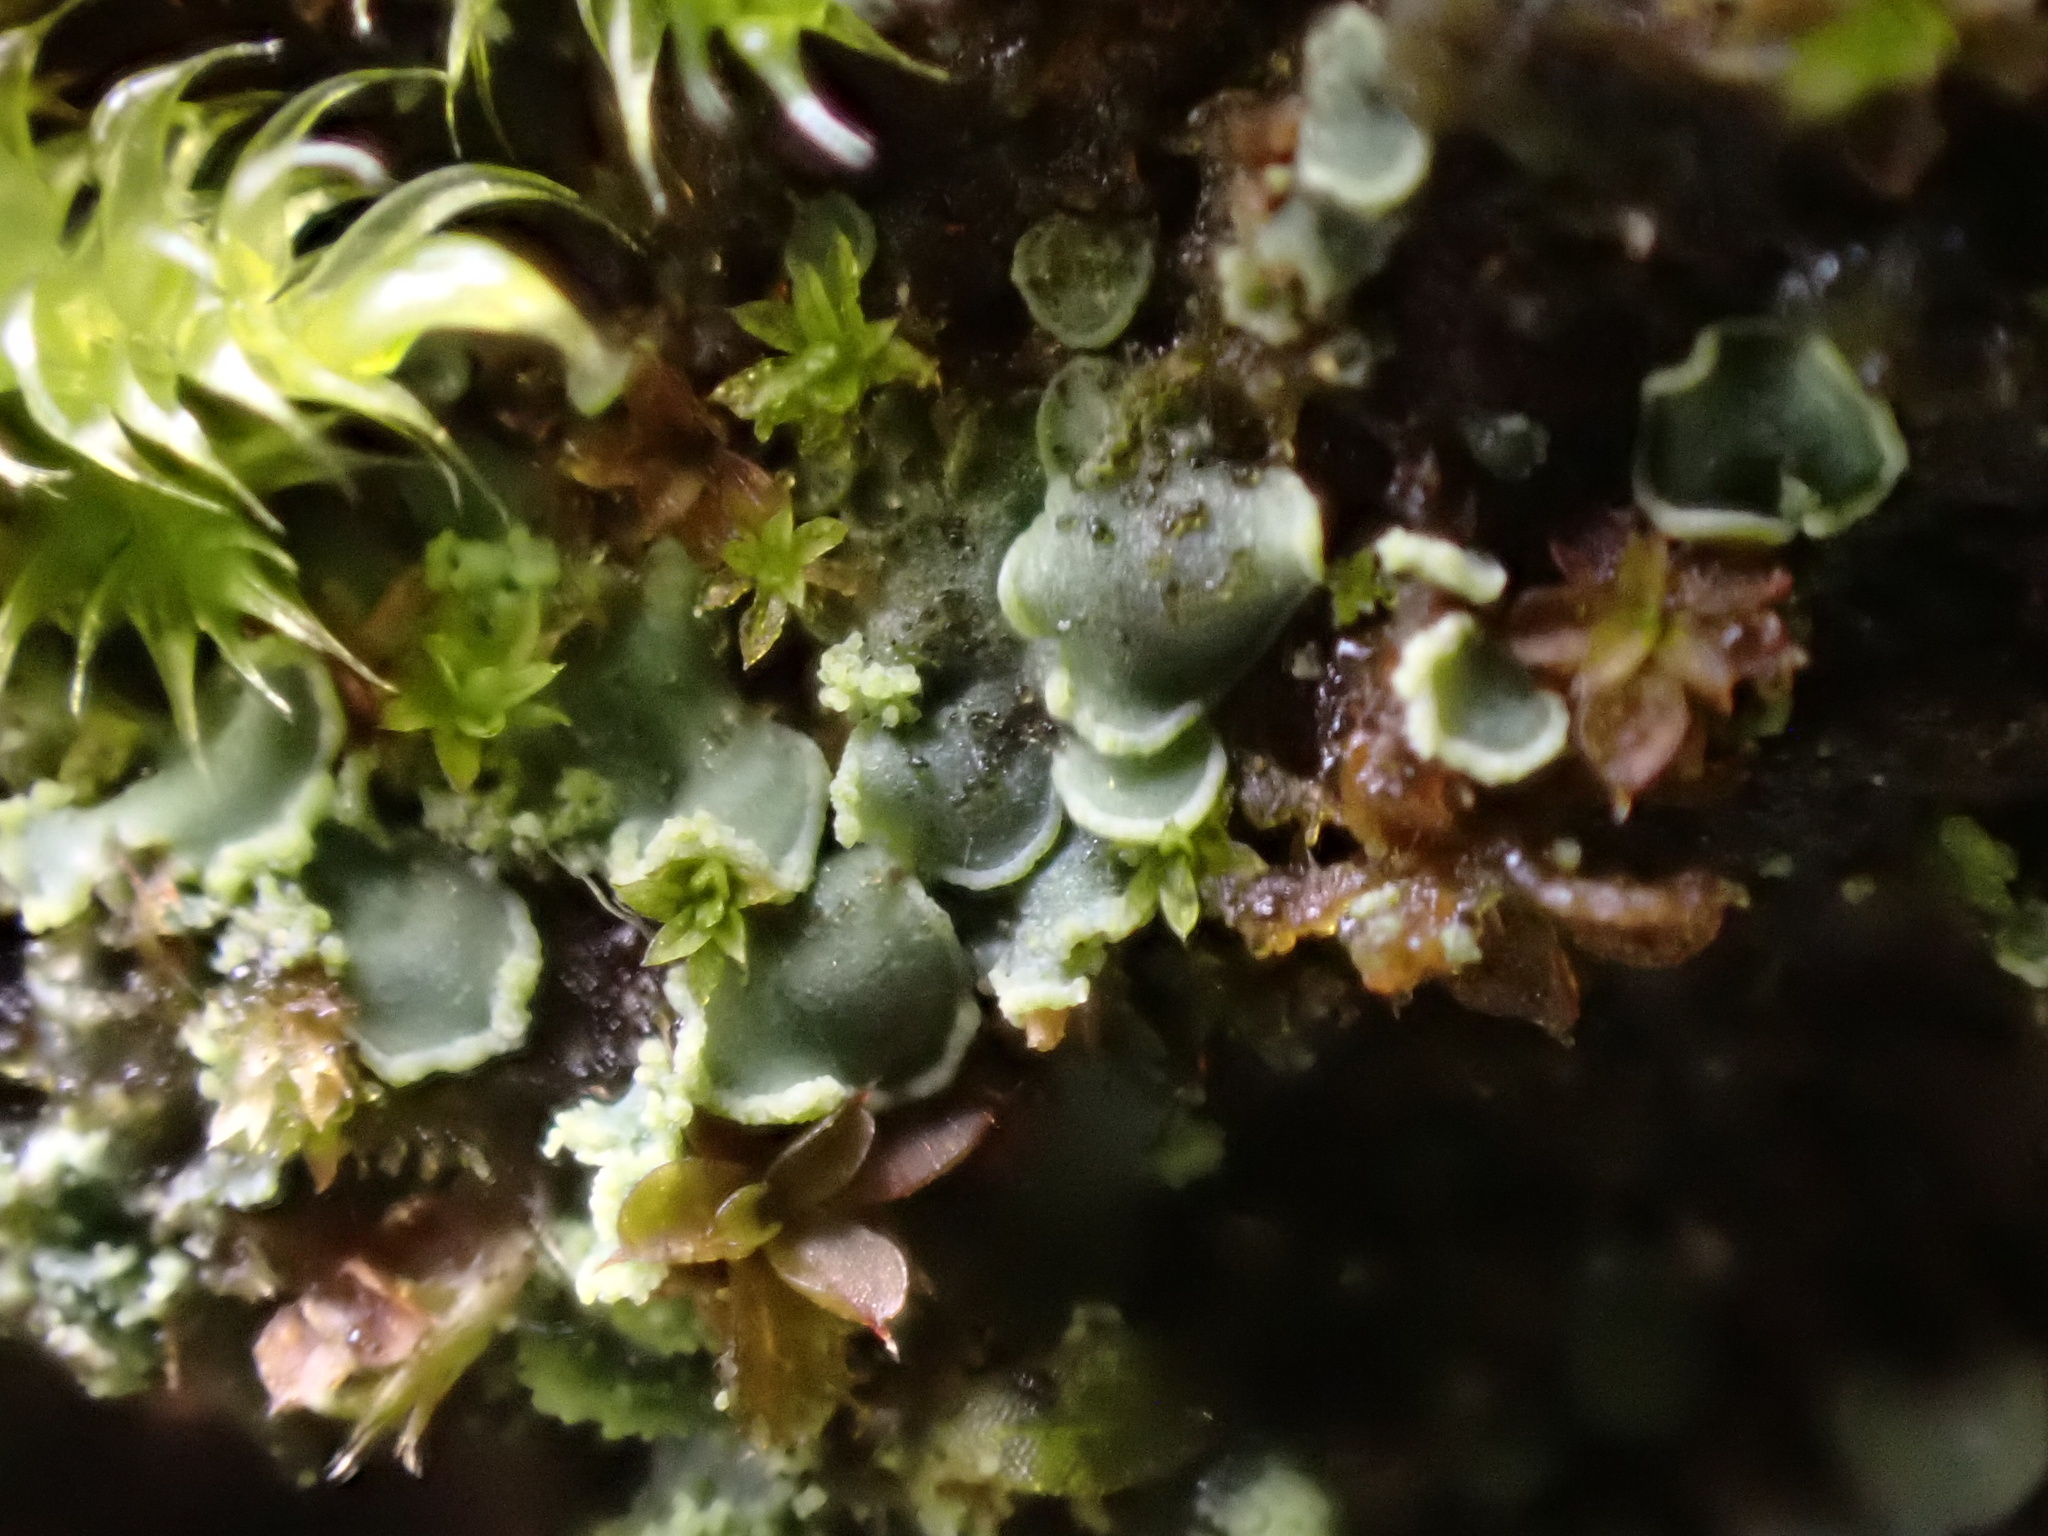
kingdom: Fungi
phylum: Ascomycota
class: Eurotiomycetes
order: Verrucariales
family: Verrucariaceae
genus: Normandina
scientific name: Normandina pulchella
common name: Elf ears lichen
